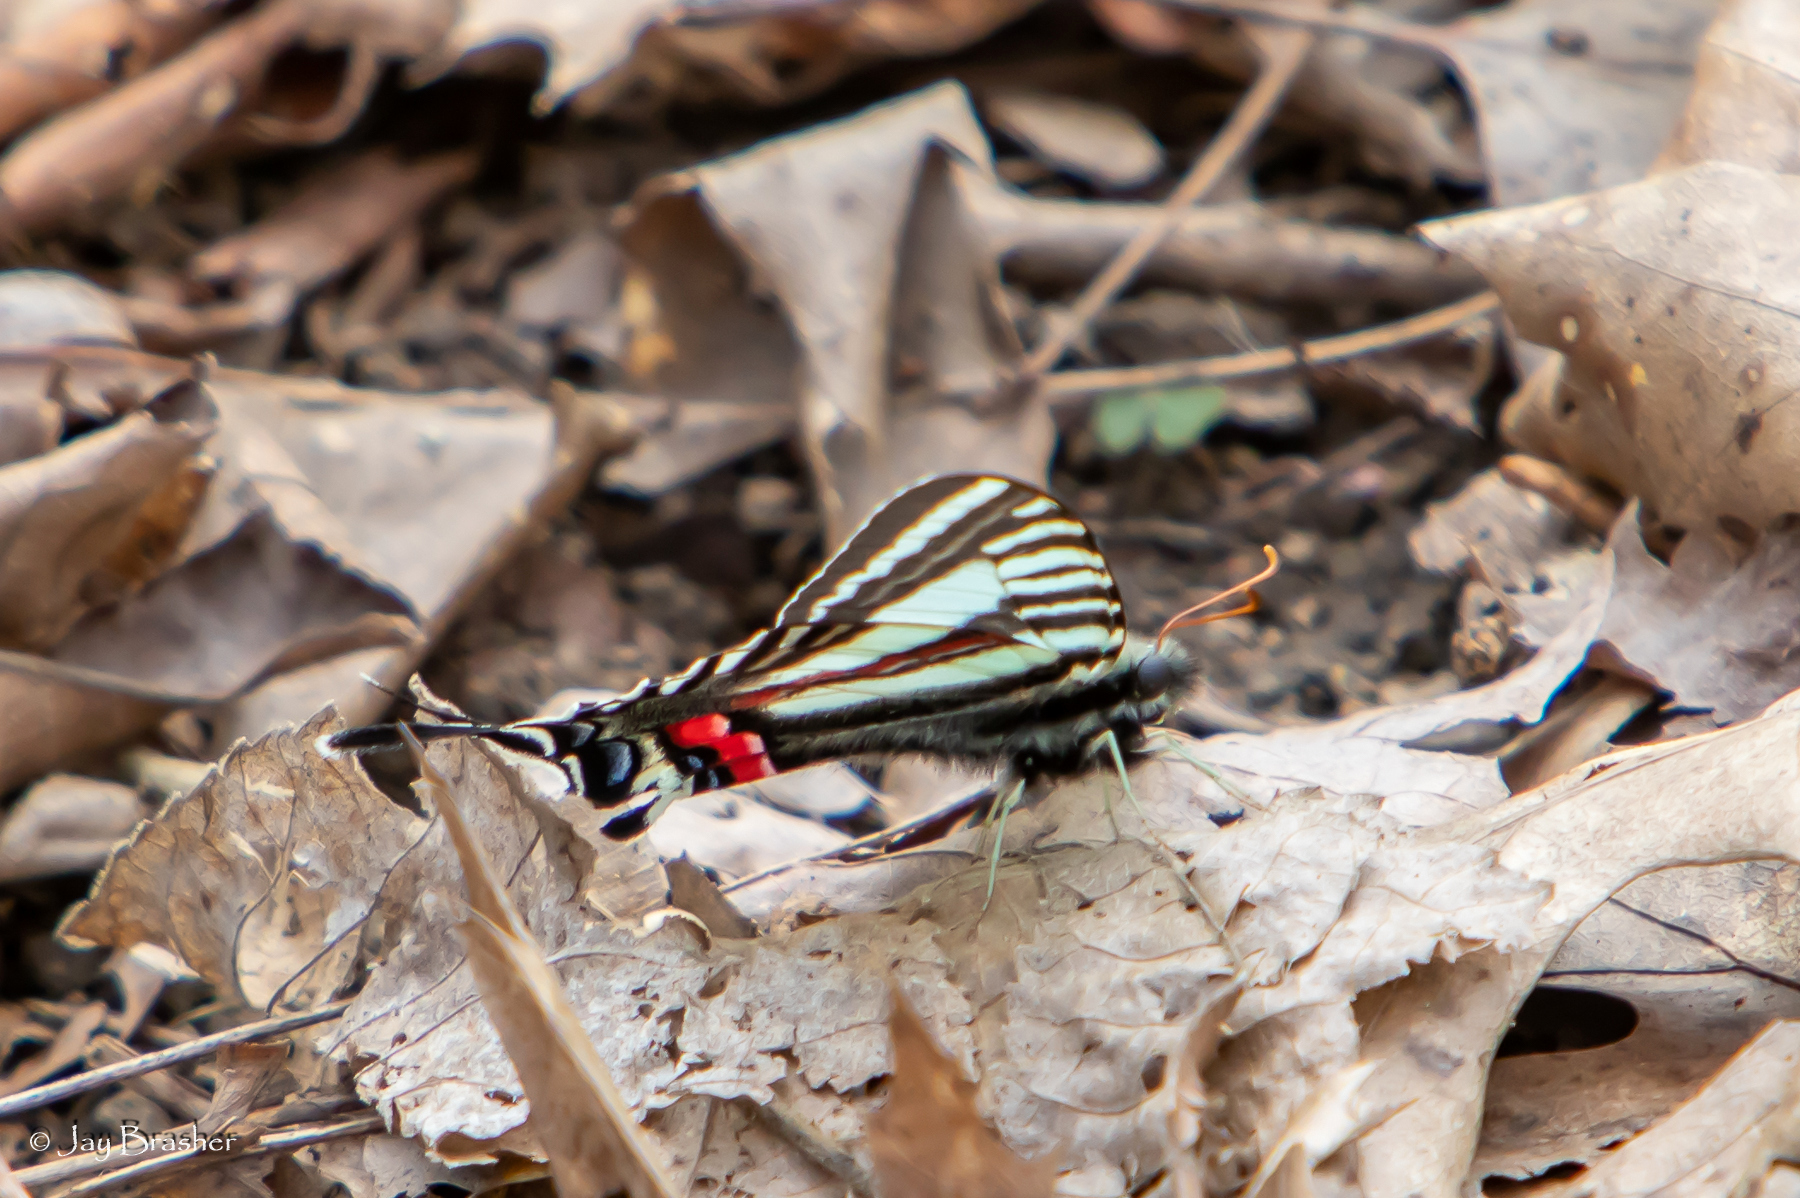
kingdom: Animalia
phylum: Arthropoda
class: Insecta
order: Lepidoptera
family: Papilionidae
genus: Protographium
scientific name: Protographium marcellus
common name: Zebra swallowtail
